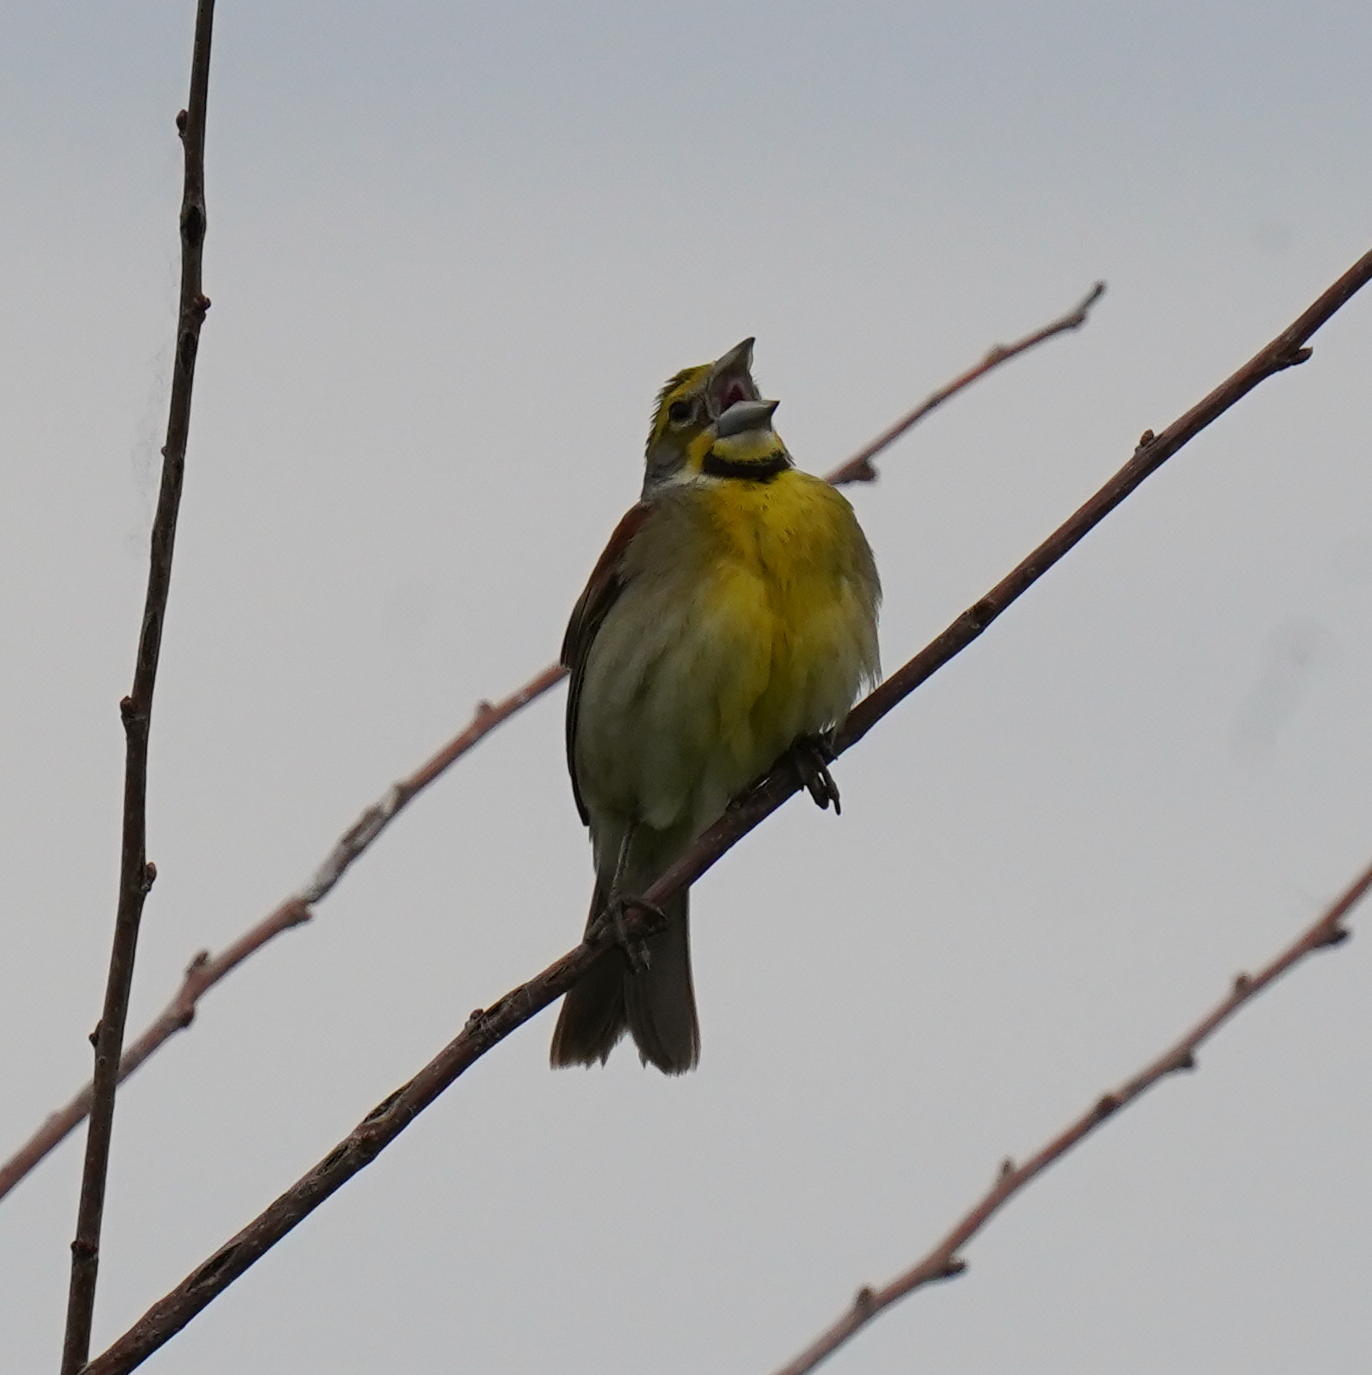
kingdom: Animalia
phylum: Chordata
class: Aves
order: Passeriformes
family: Cardinalidae
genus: Spiza
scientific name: Spiza americana
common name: Dickcissel
